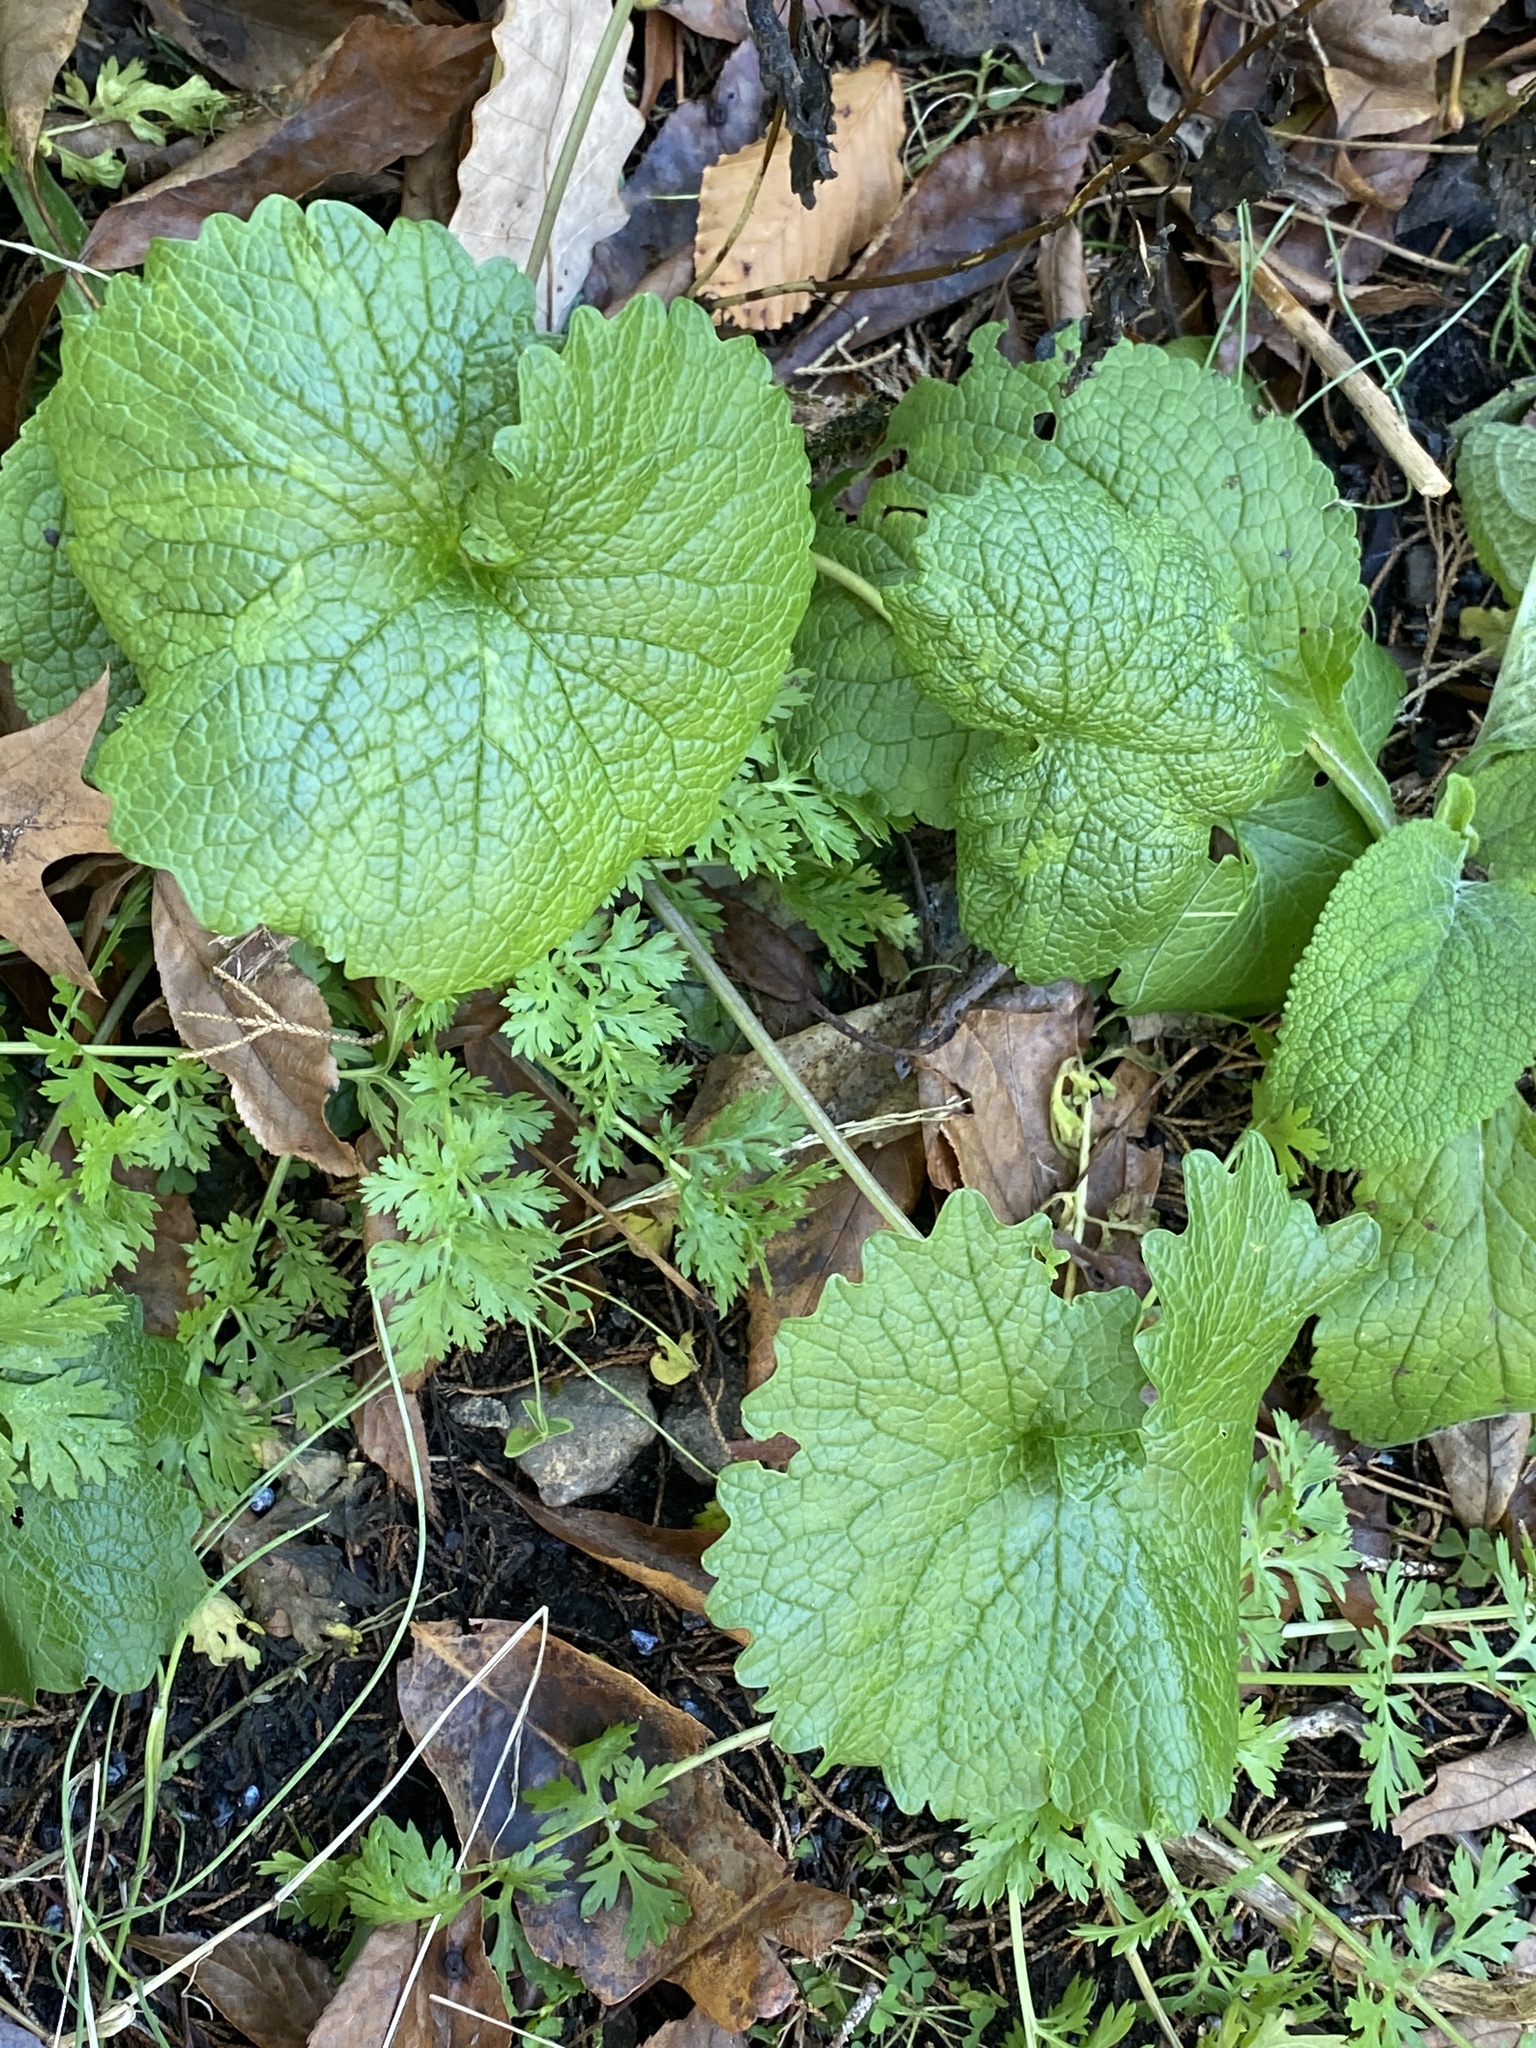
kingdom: Plantae
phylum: Tracheophyta
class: Magnoliopsida
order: Brassicales
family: Brassicaceae
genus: Alliaria
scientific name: Alliaria petiolata
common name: Garlic mustard
